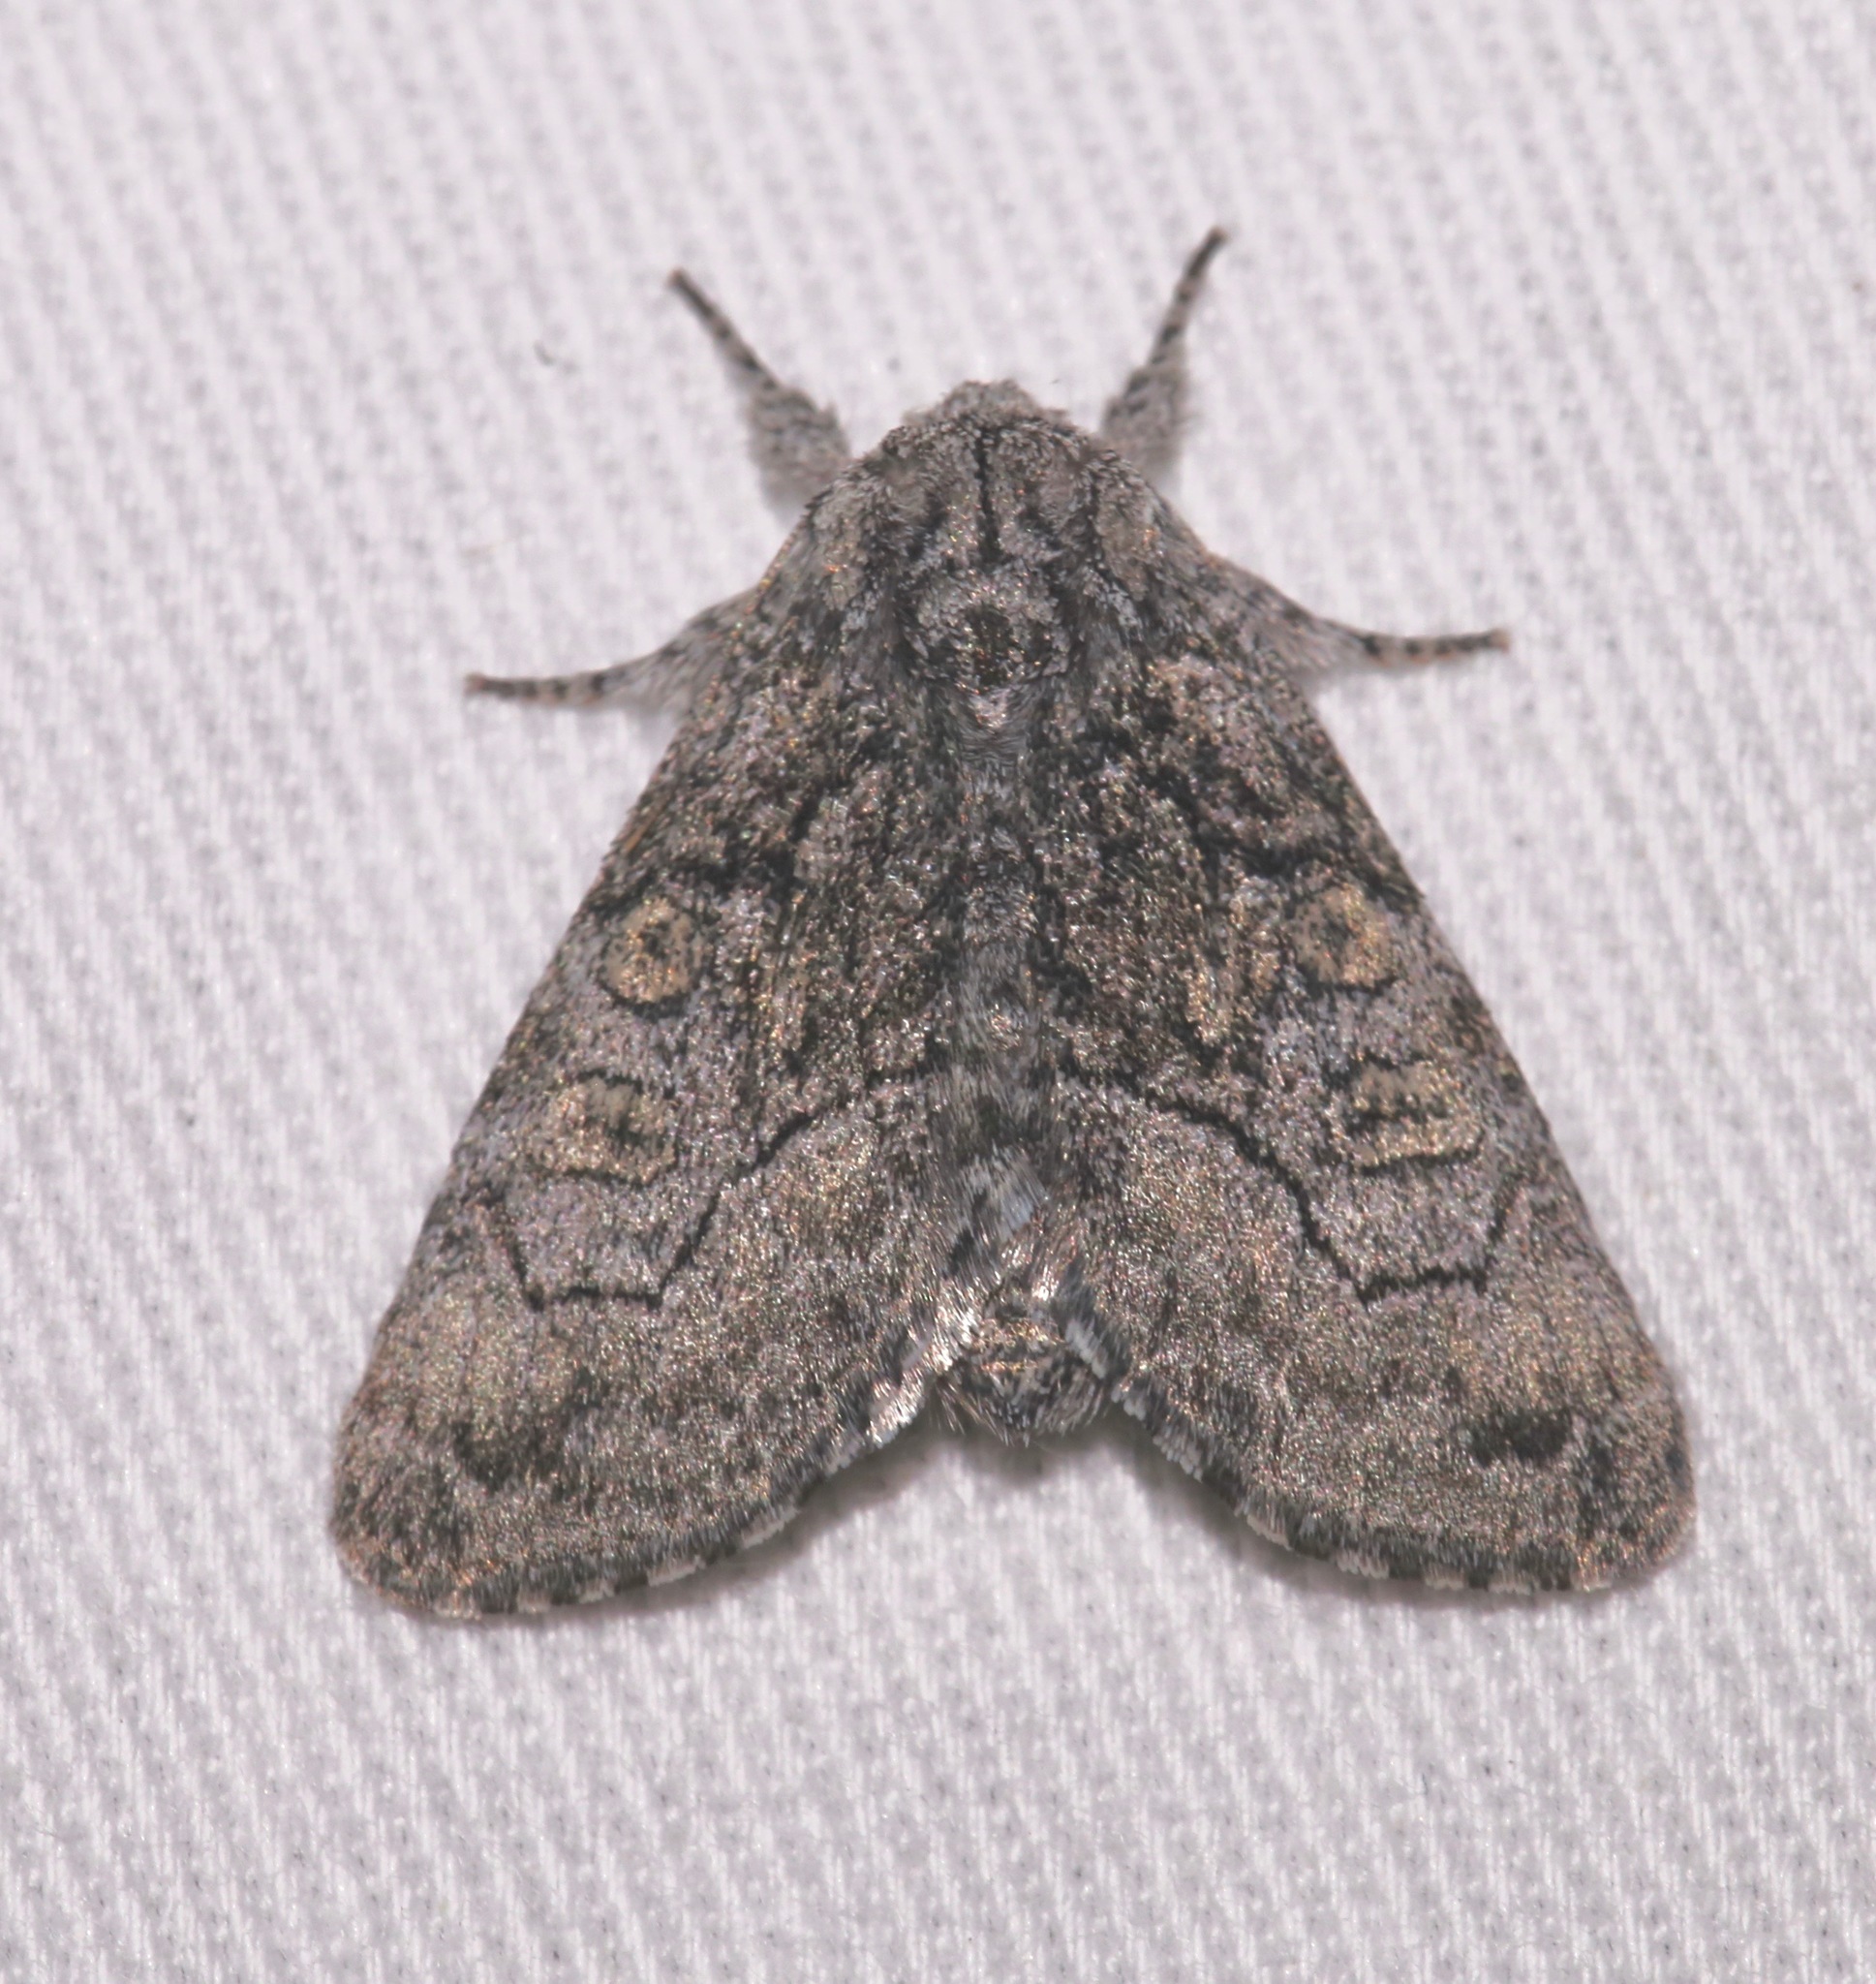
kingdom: Animalia
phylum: Arthropoda
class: Insecta
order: Lepidoptera
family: Noctuidae
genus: Raphia
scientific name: Raphia frater
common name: Brother
